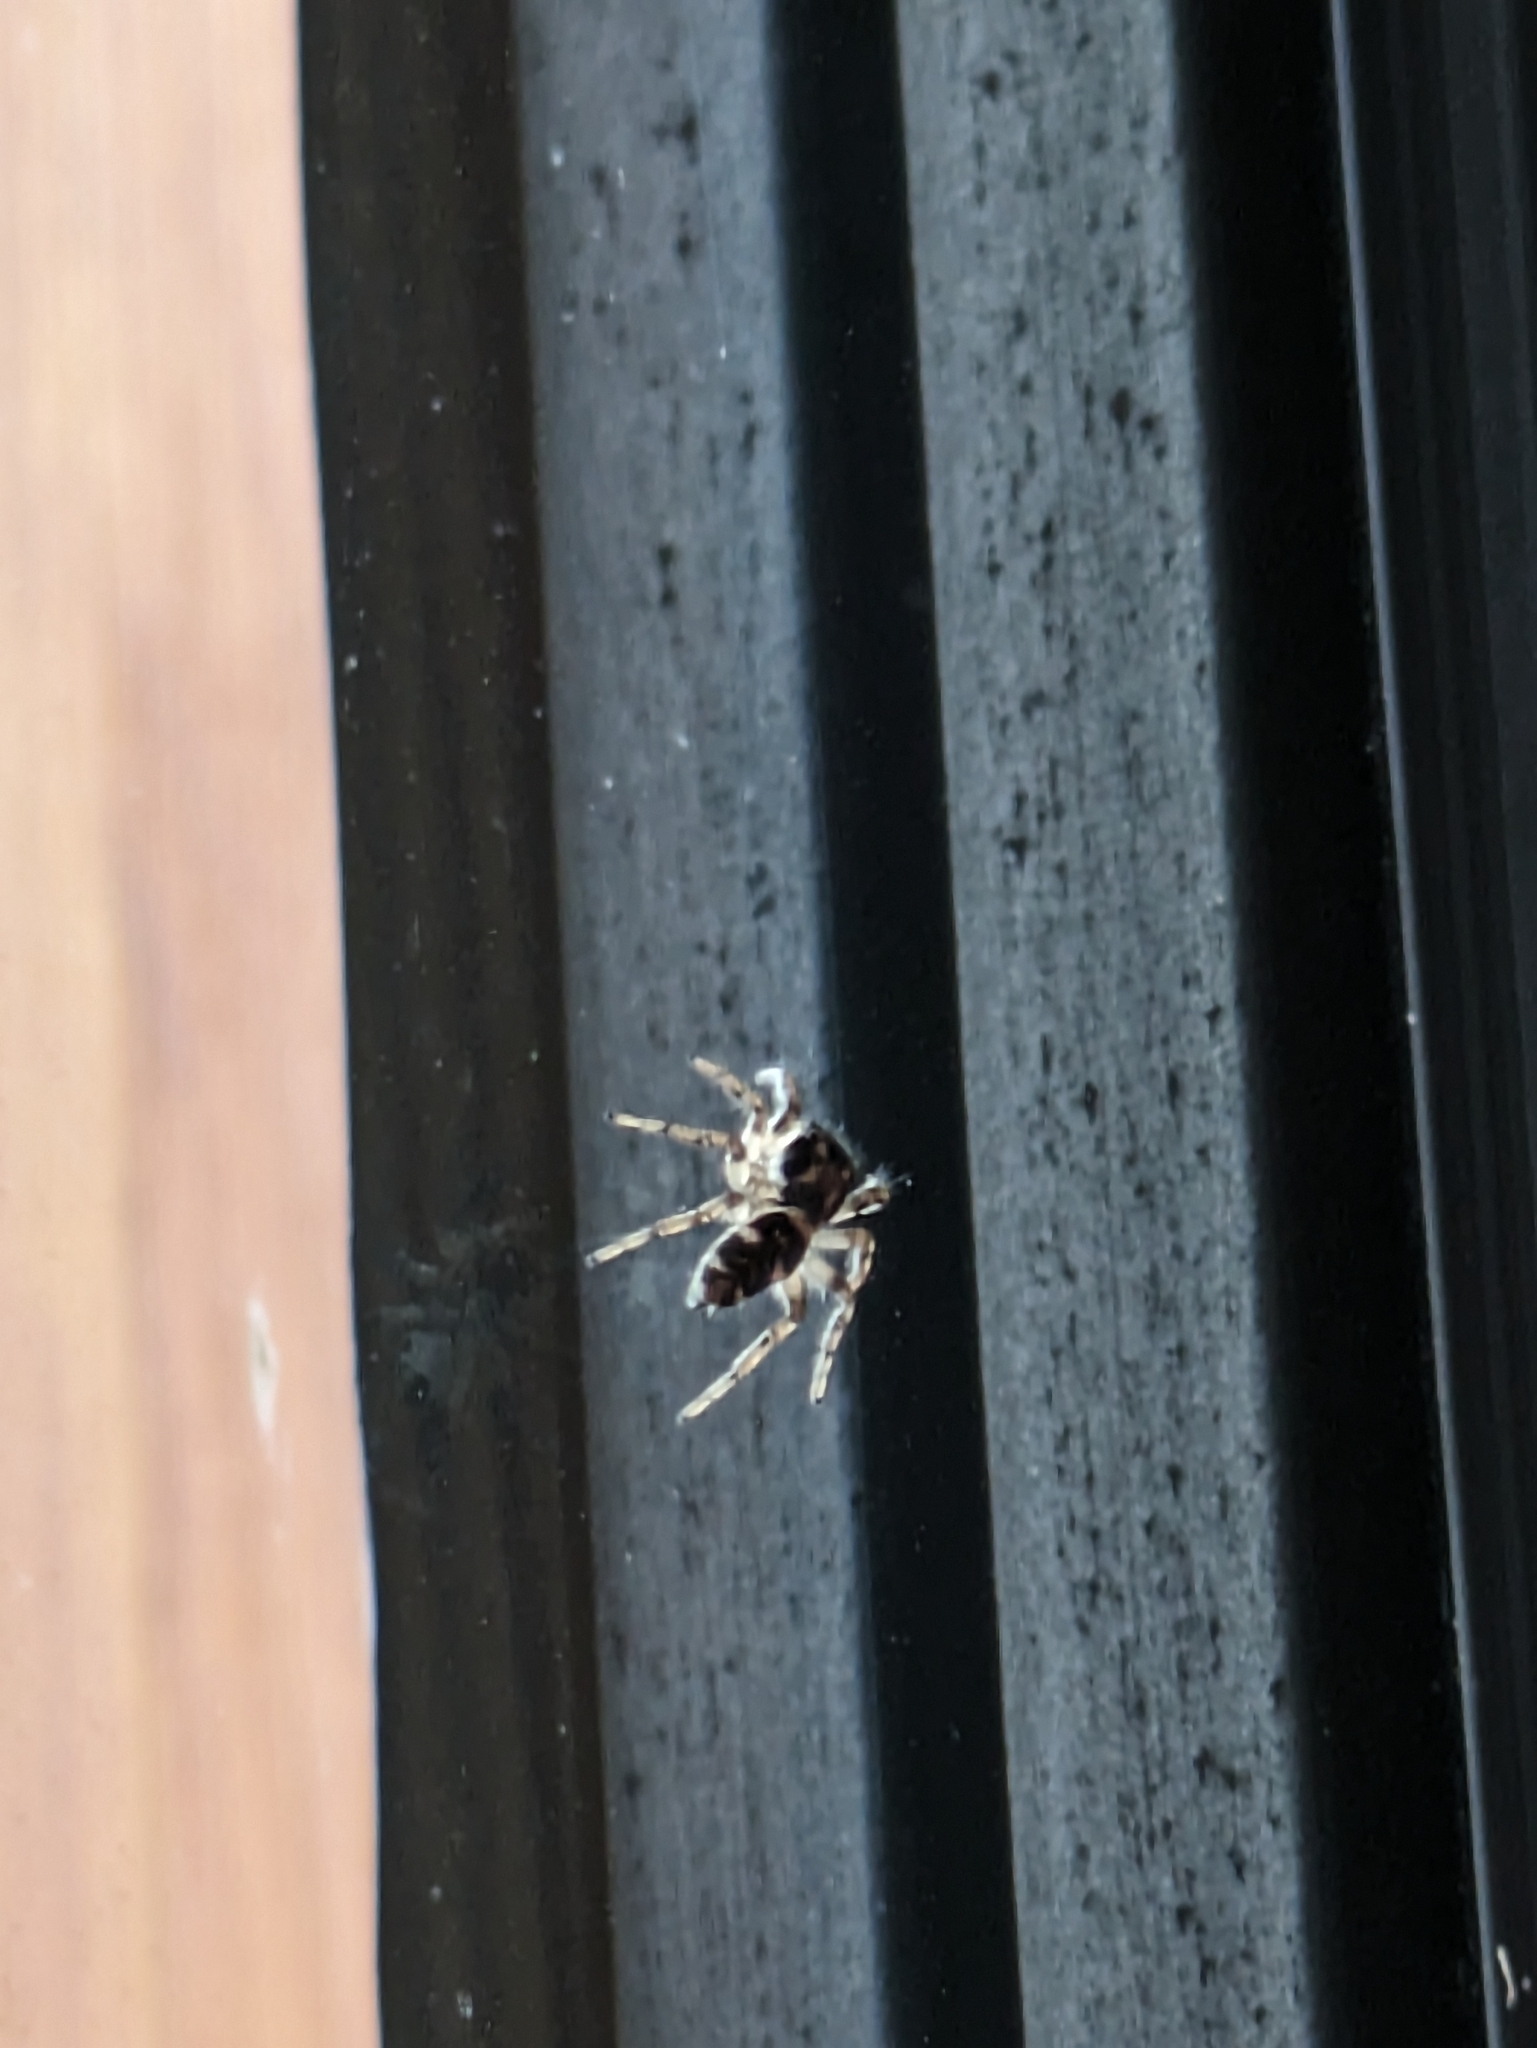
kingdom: Animalia
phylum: Arthropoda
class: Arachnida
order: Araneae
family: Salticidae
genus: Salticus
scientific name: Salticus scenicus
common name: Zebra jumper
